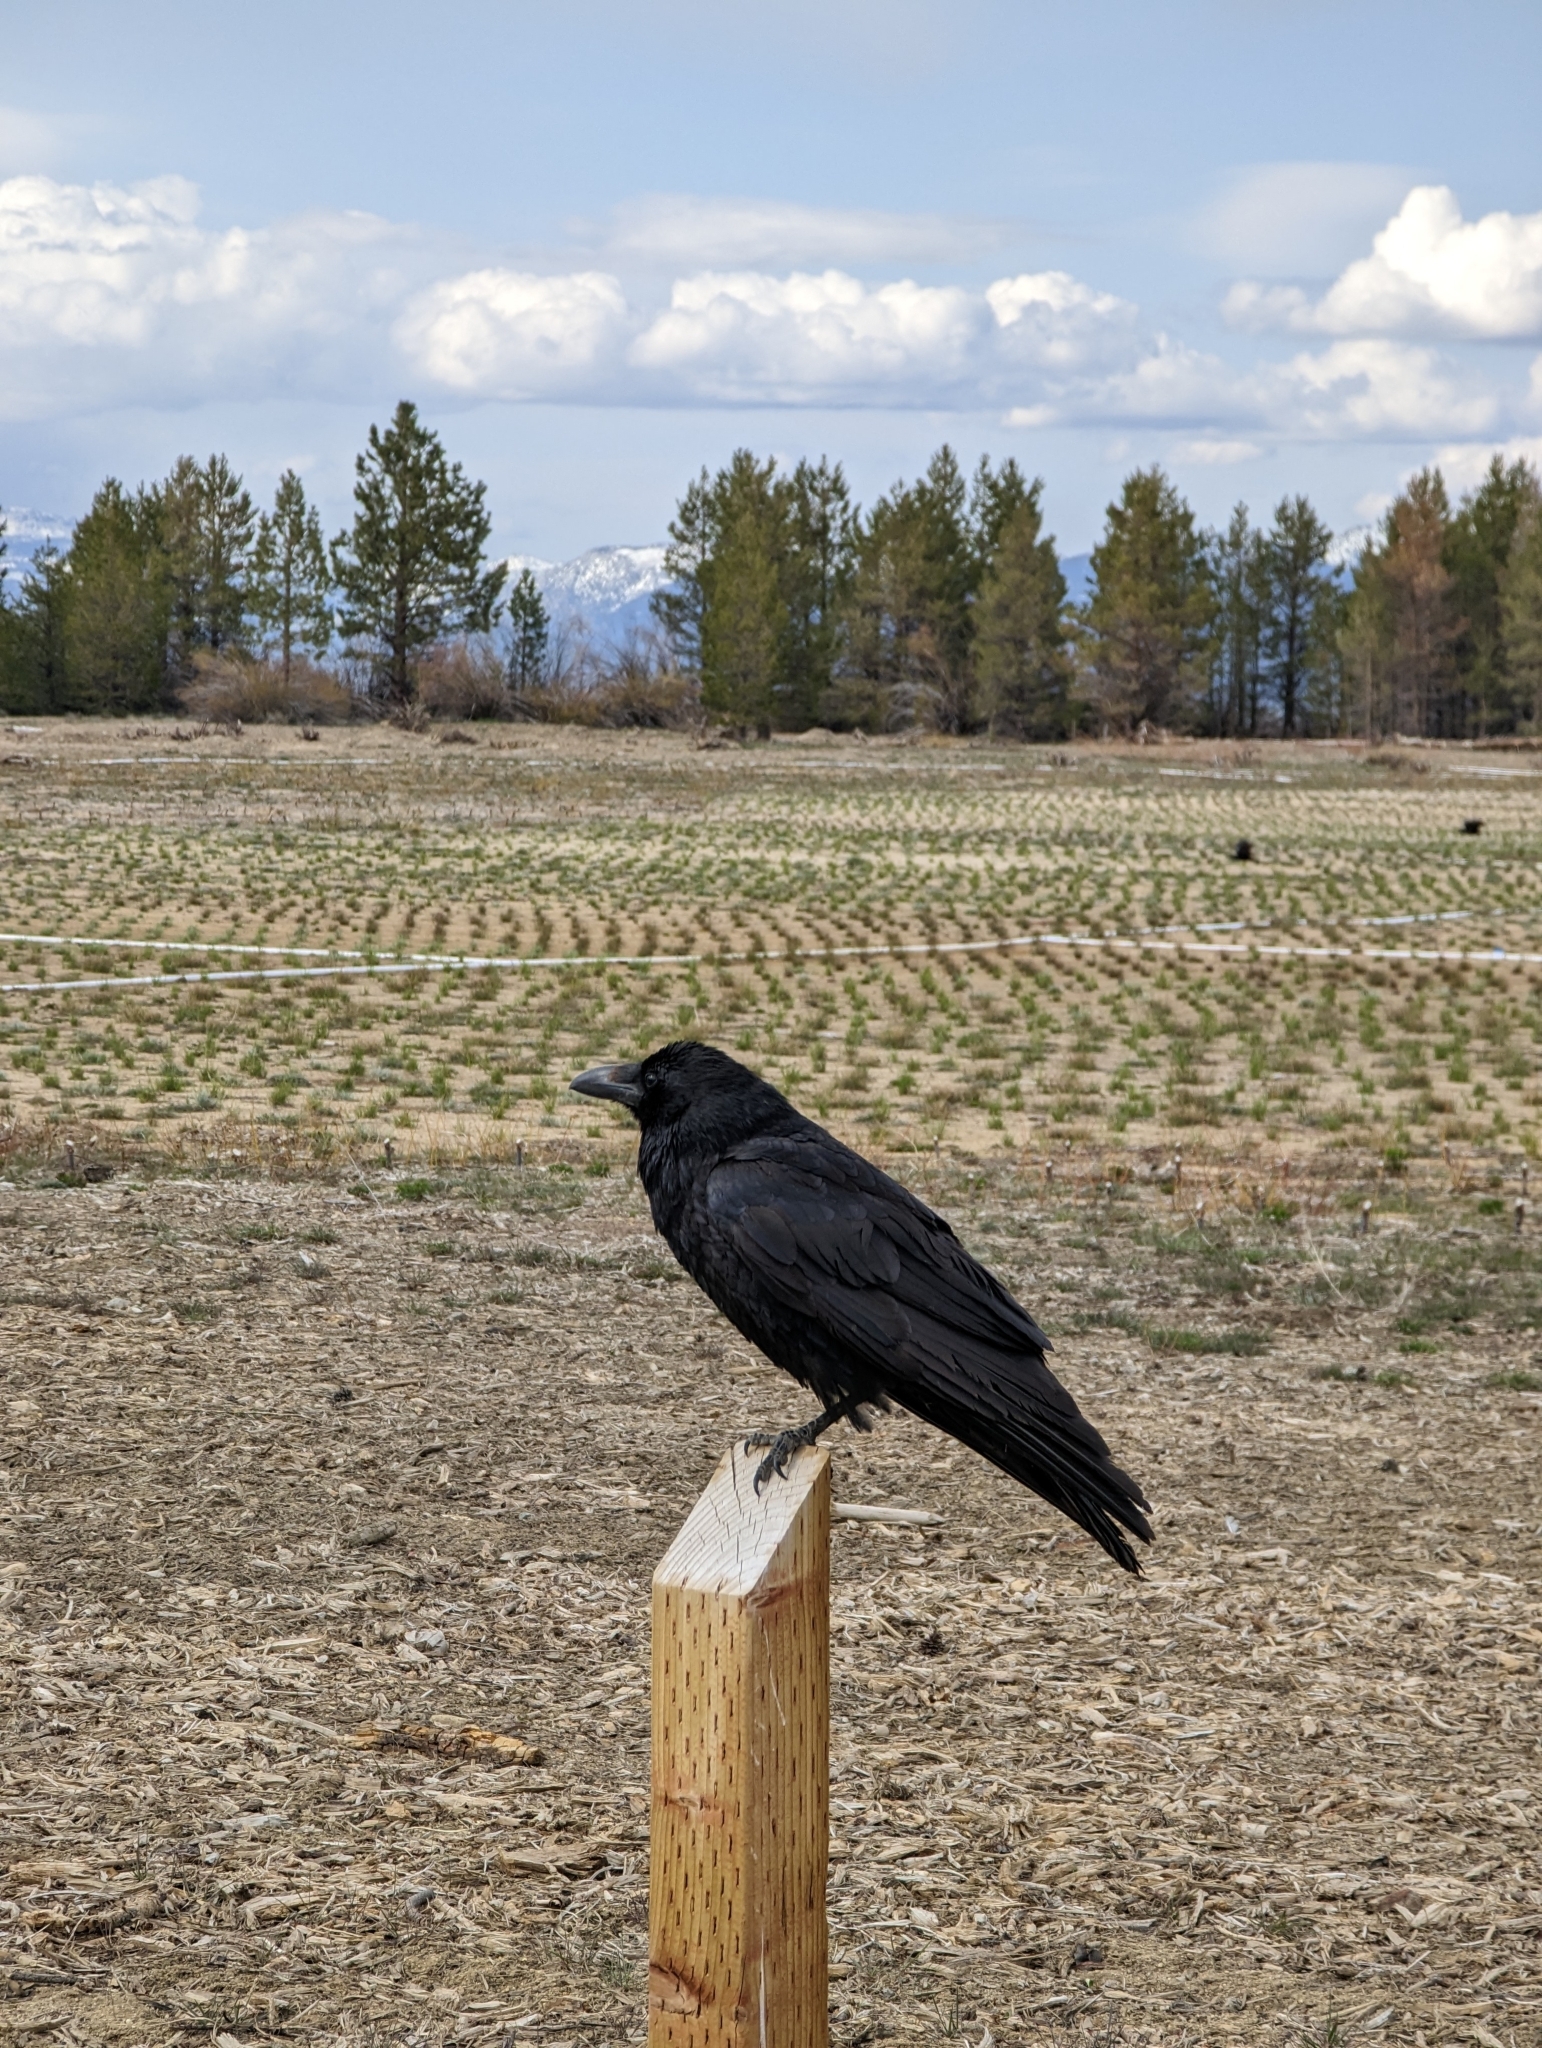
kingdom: Animalia
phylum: Chordata
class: Aves
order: Passeriformes
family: Corvidae
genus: Corvus
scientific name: Corvus corax
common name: Common raven
